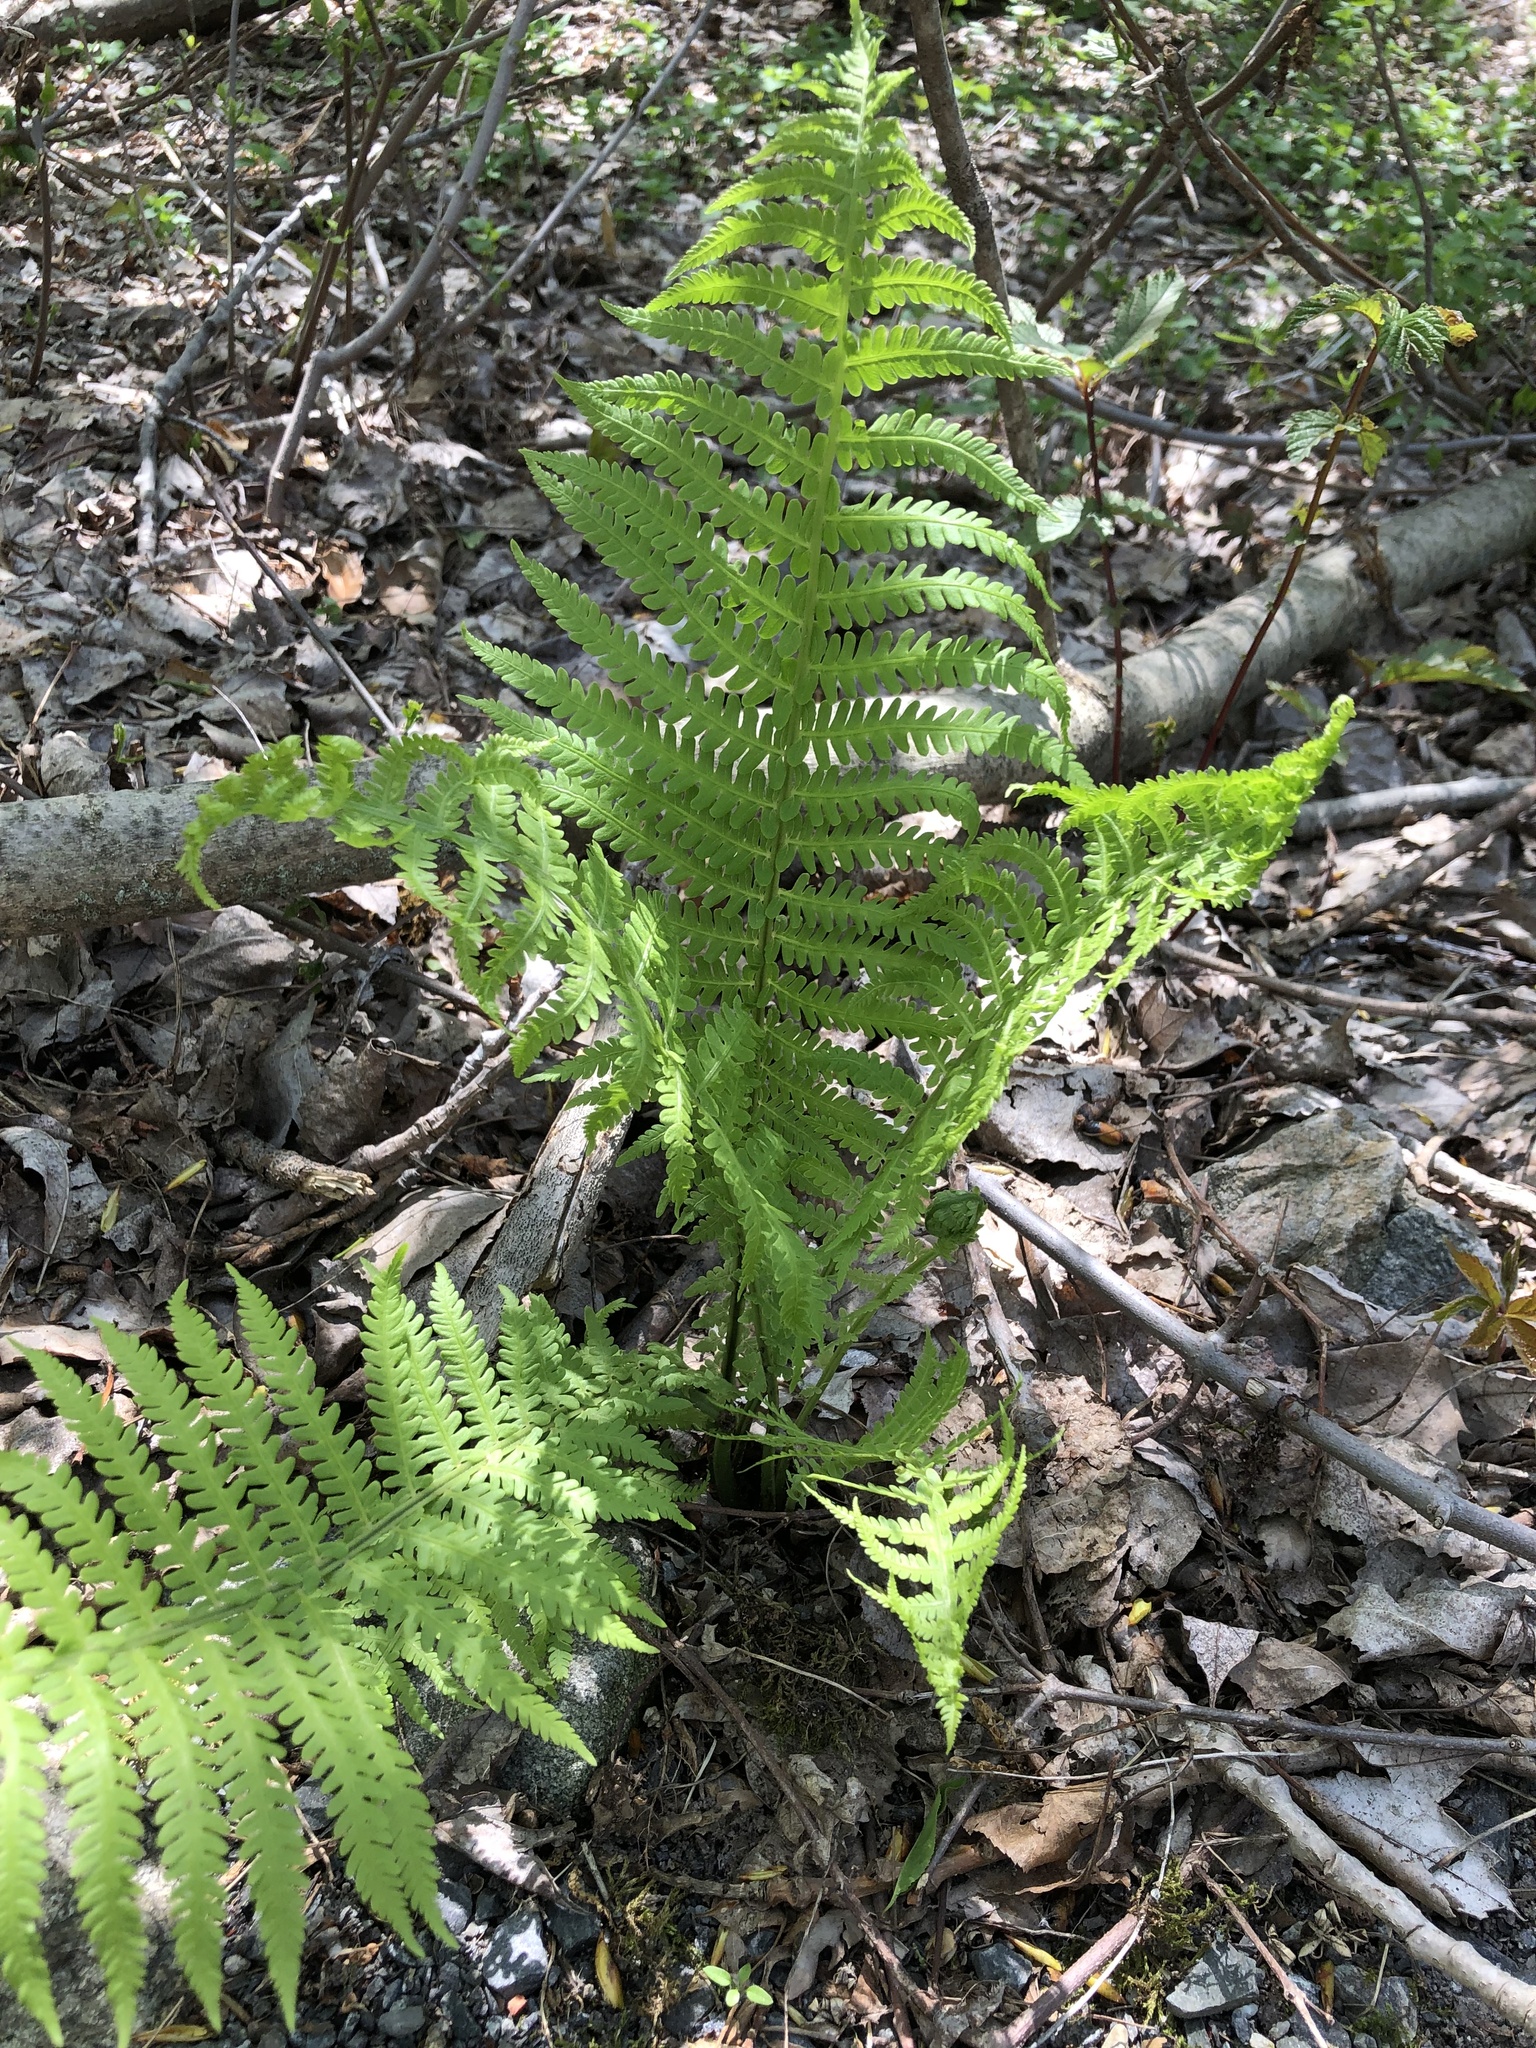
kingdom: Plantae
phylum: Tracheophyta
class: Polypodiopsida
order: Polypodiales
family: Onocleaceae
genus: Matteuccia
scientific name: Matteuccia struthiopteris
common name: Ostrich fern
